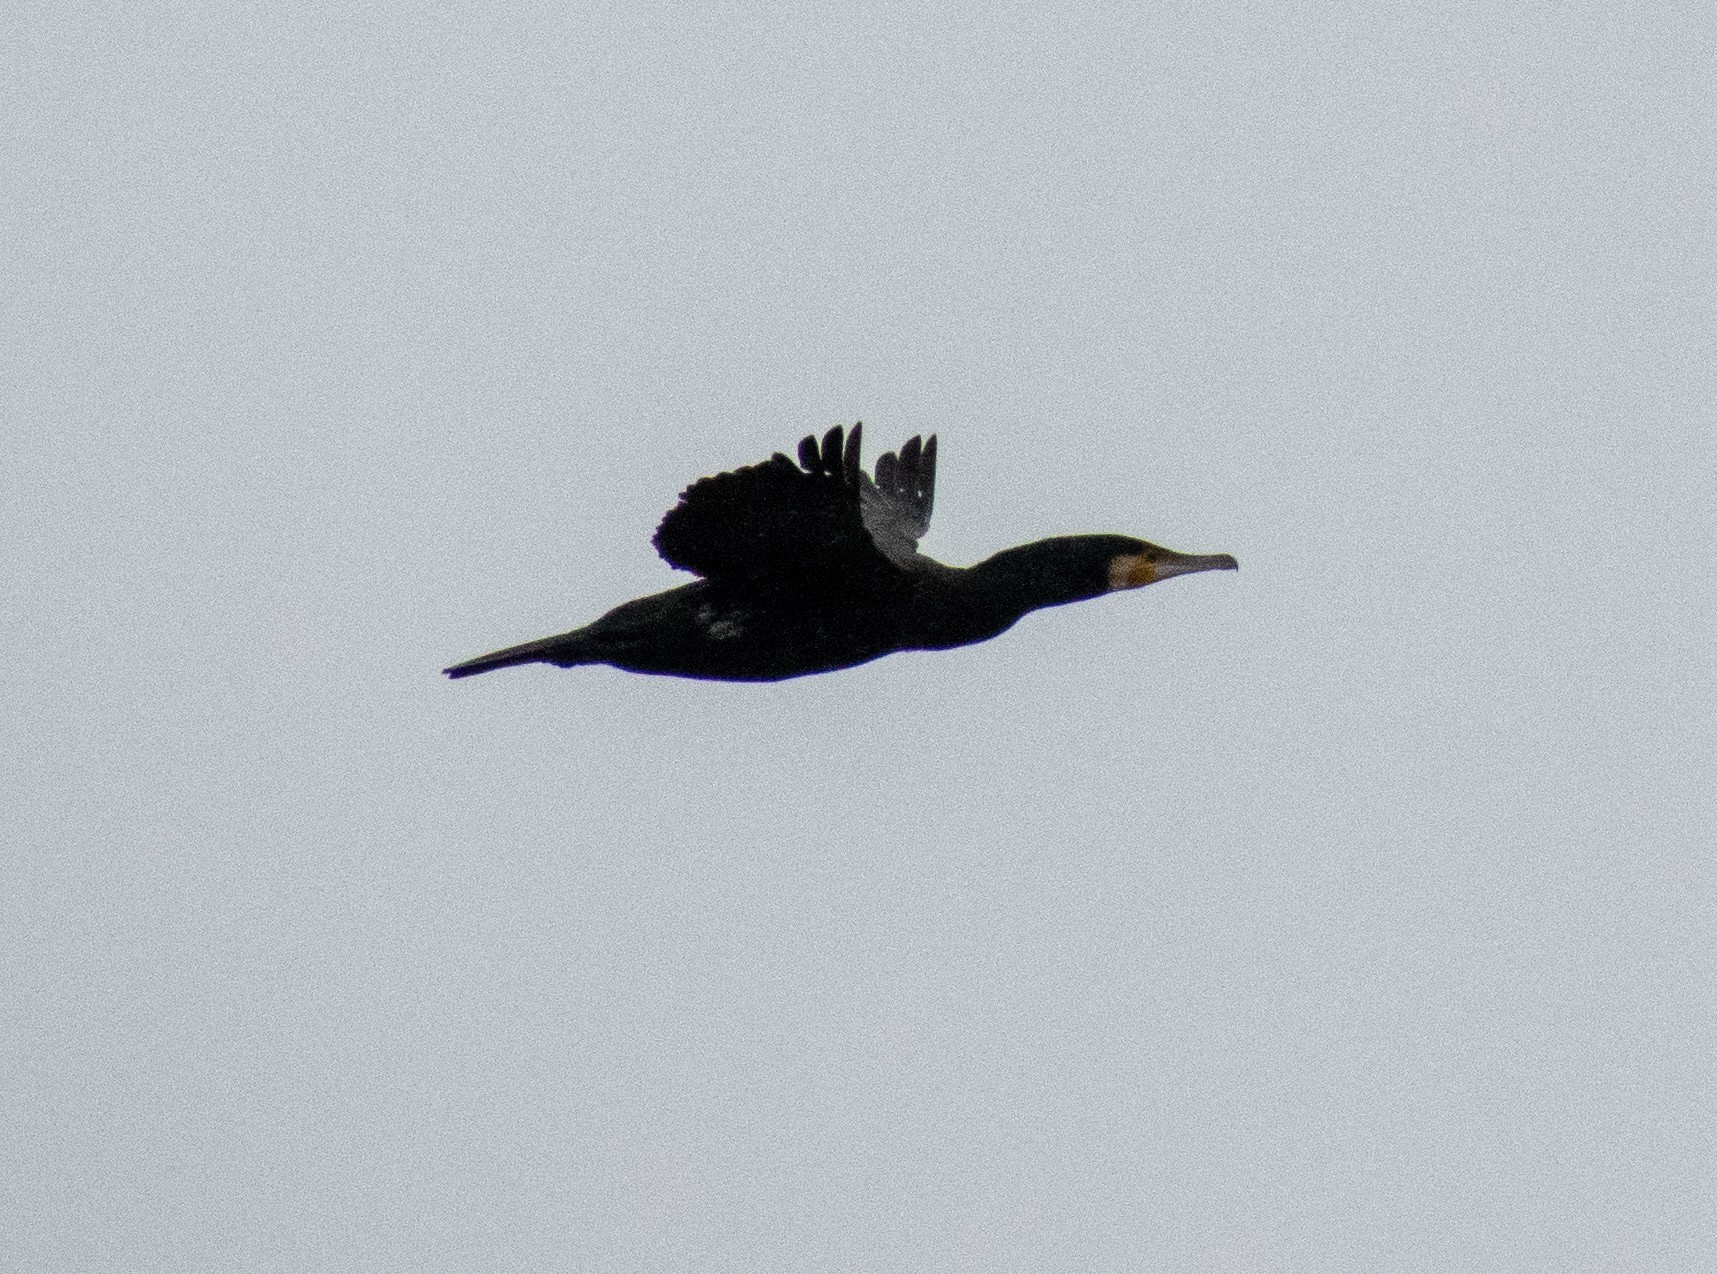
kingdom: Animalia
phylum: Chordata
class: Aves
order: Suliformes
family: Phalacrocoracidae
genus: Phalacrocorax
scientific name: Phalacrocorax carbo
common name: Great cormorant
